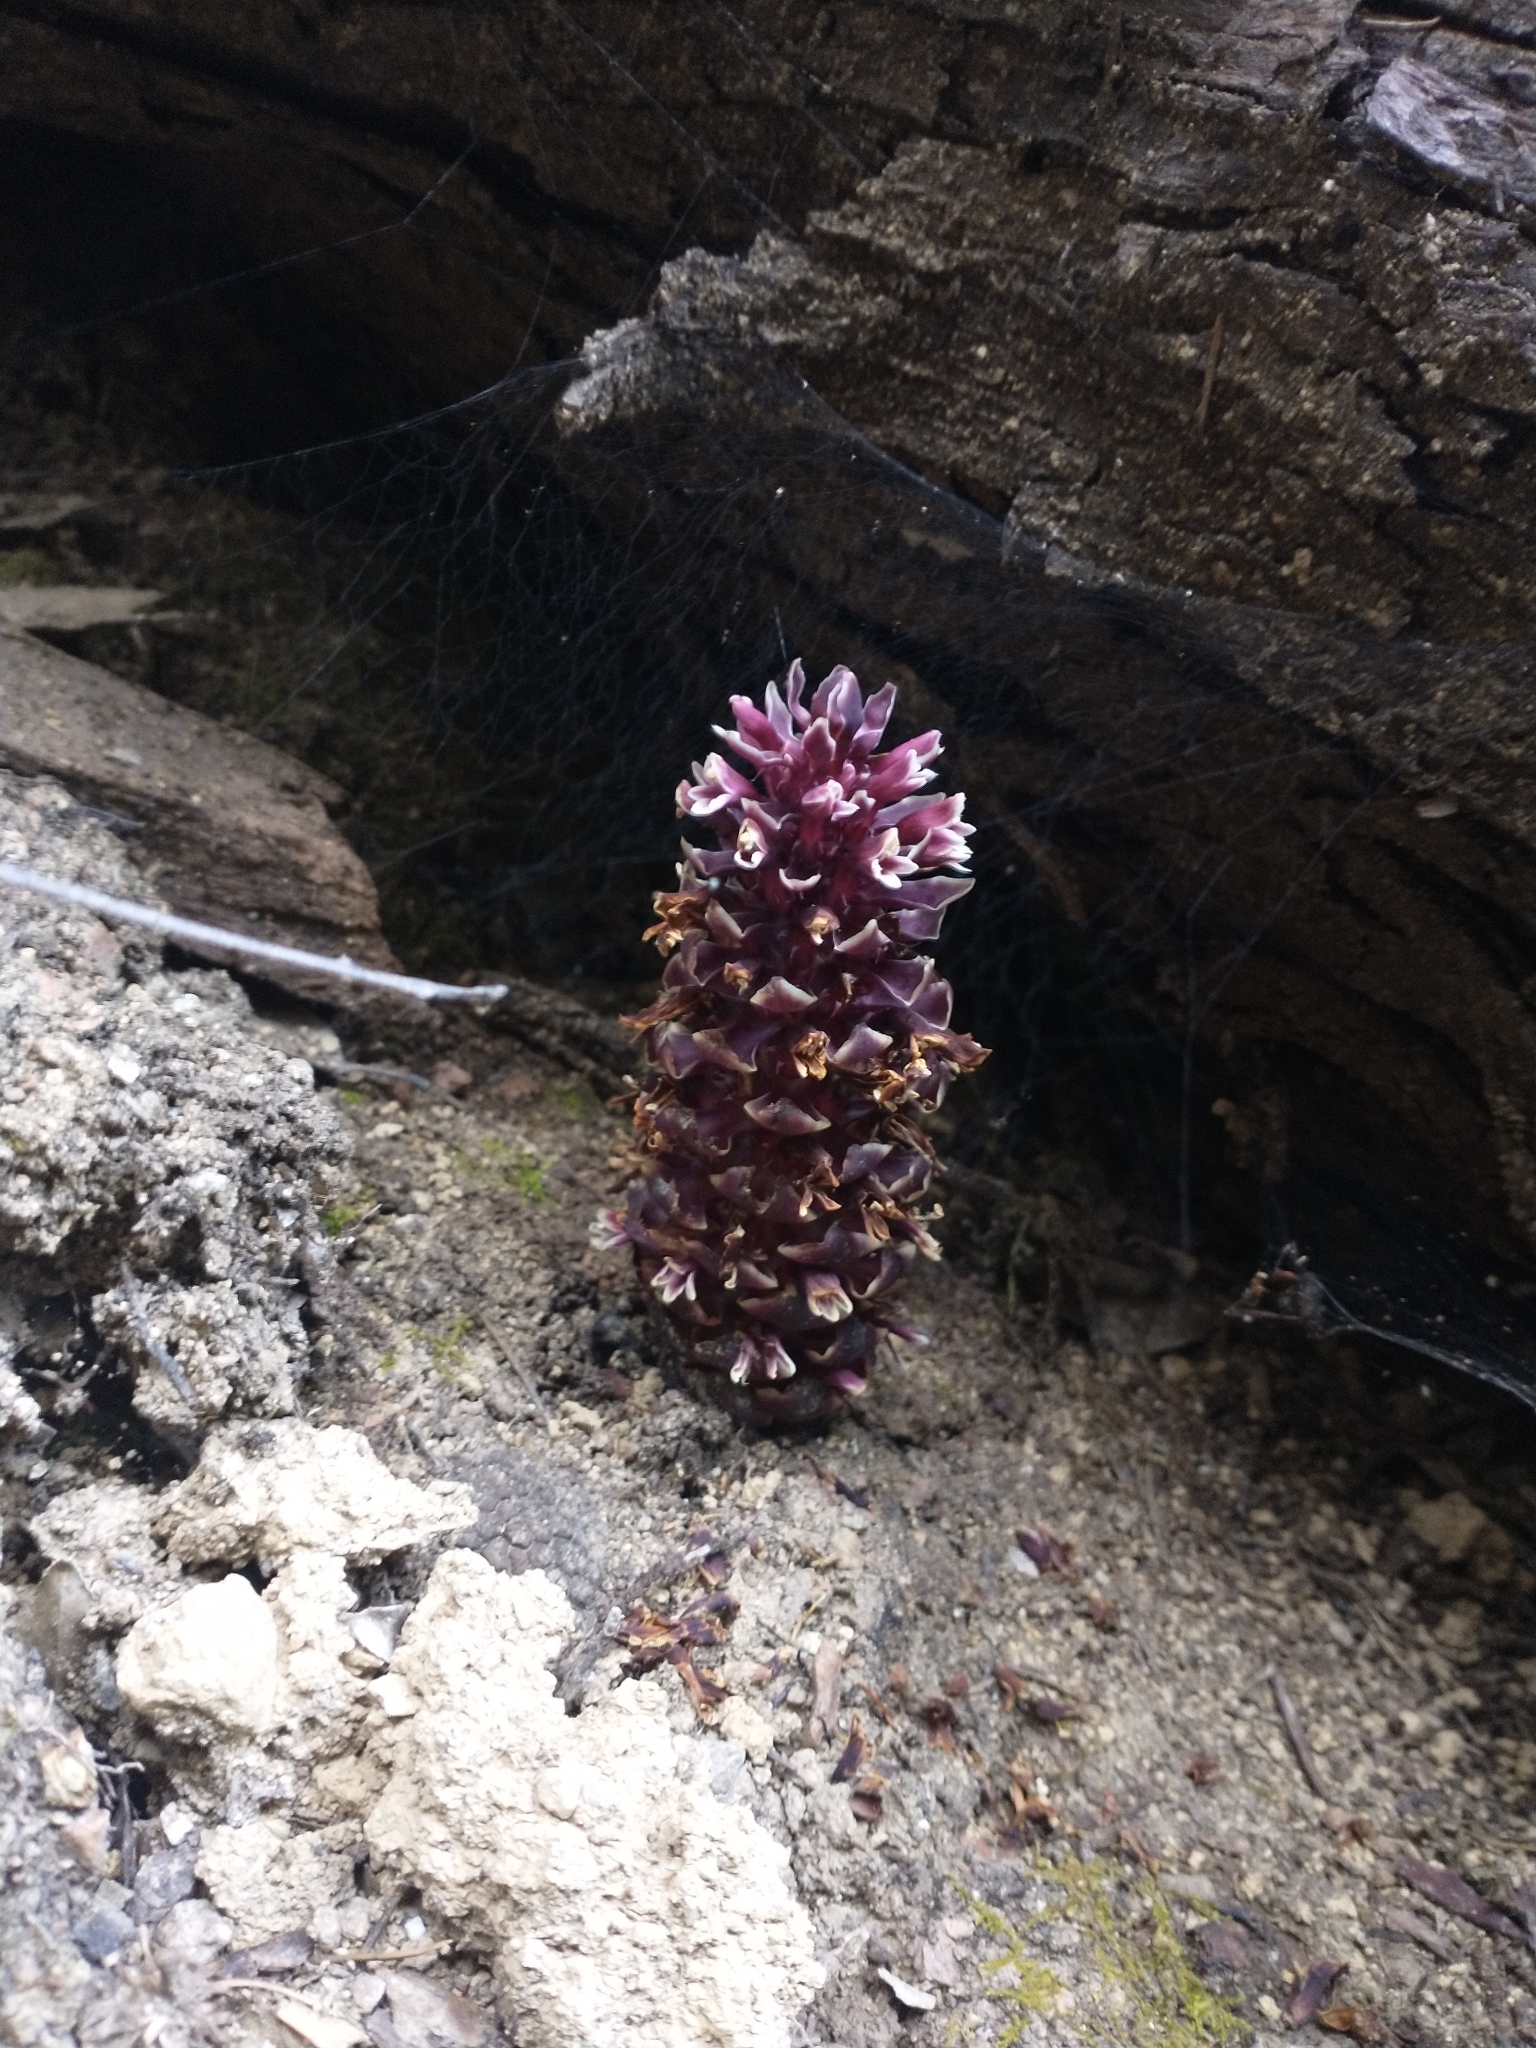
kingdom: Plantae
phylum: Tracheophyta
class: Magnoliopsida
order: Lamiales
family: Orobanchaceae
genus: Kopsiopsis
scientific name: Kopsiopsis strobilacea
